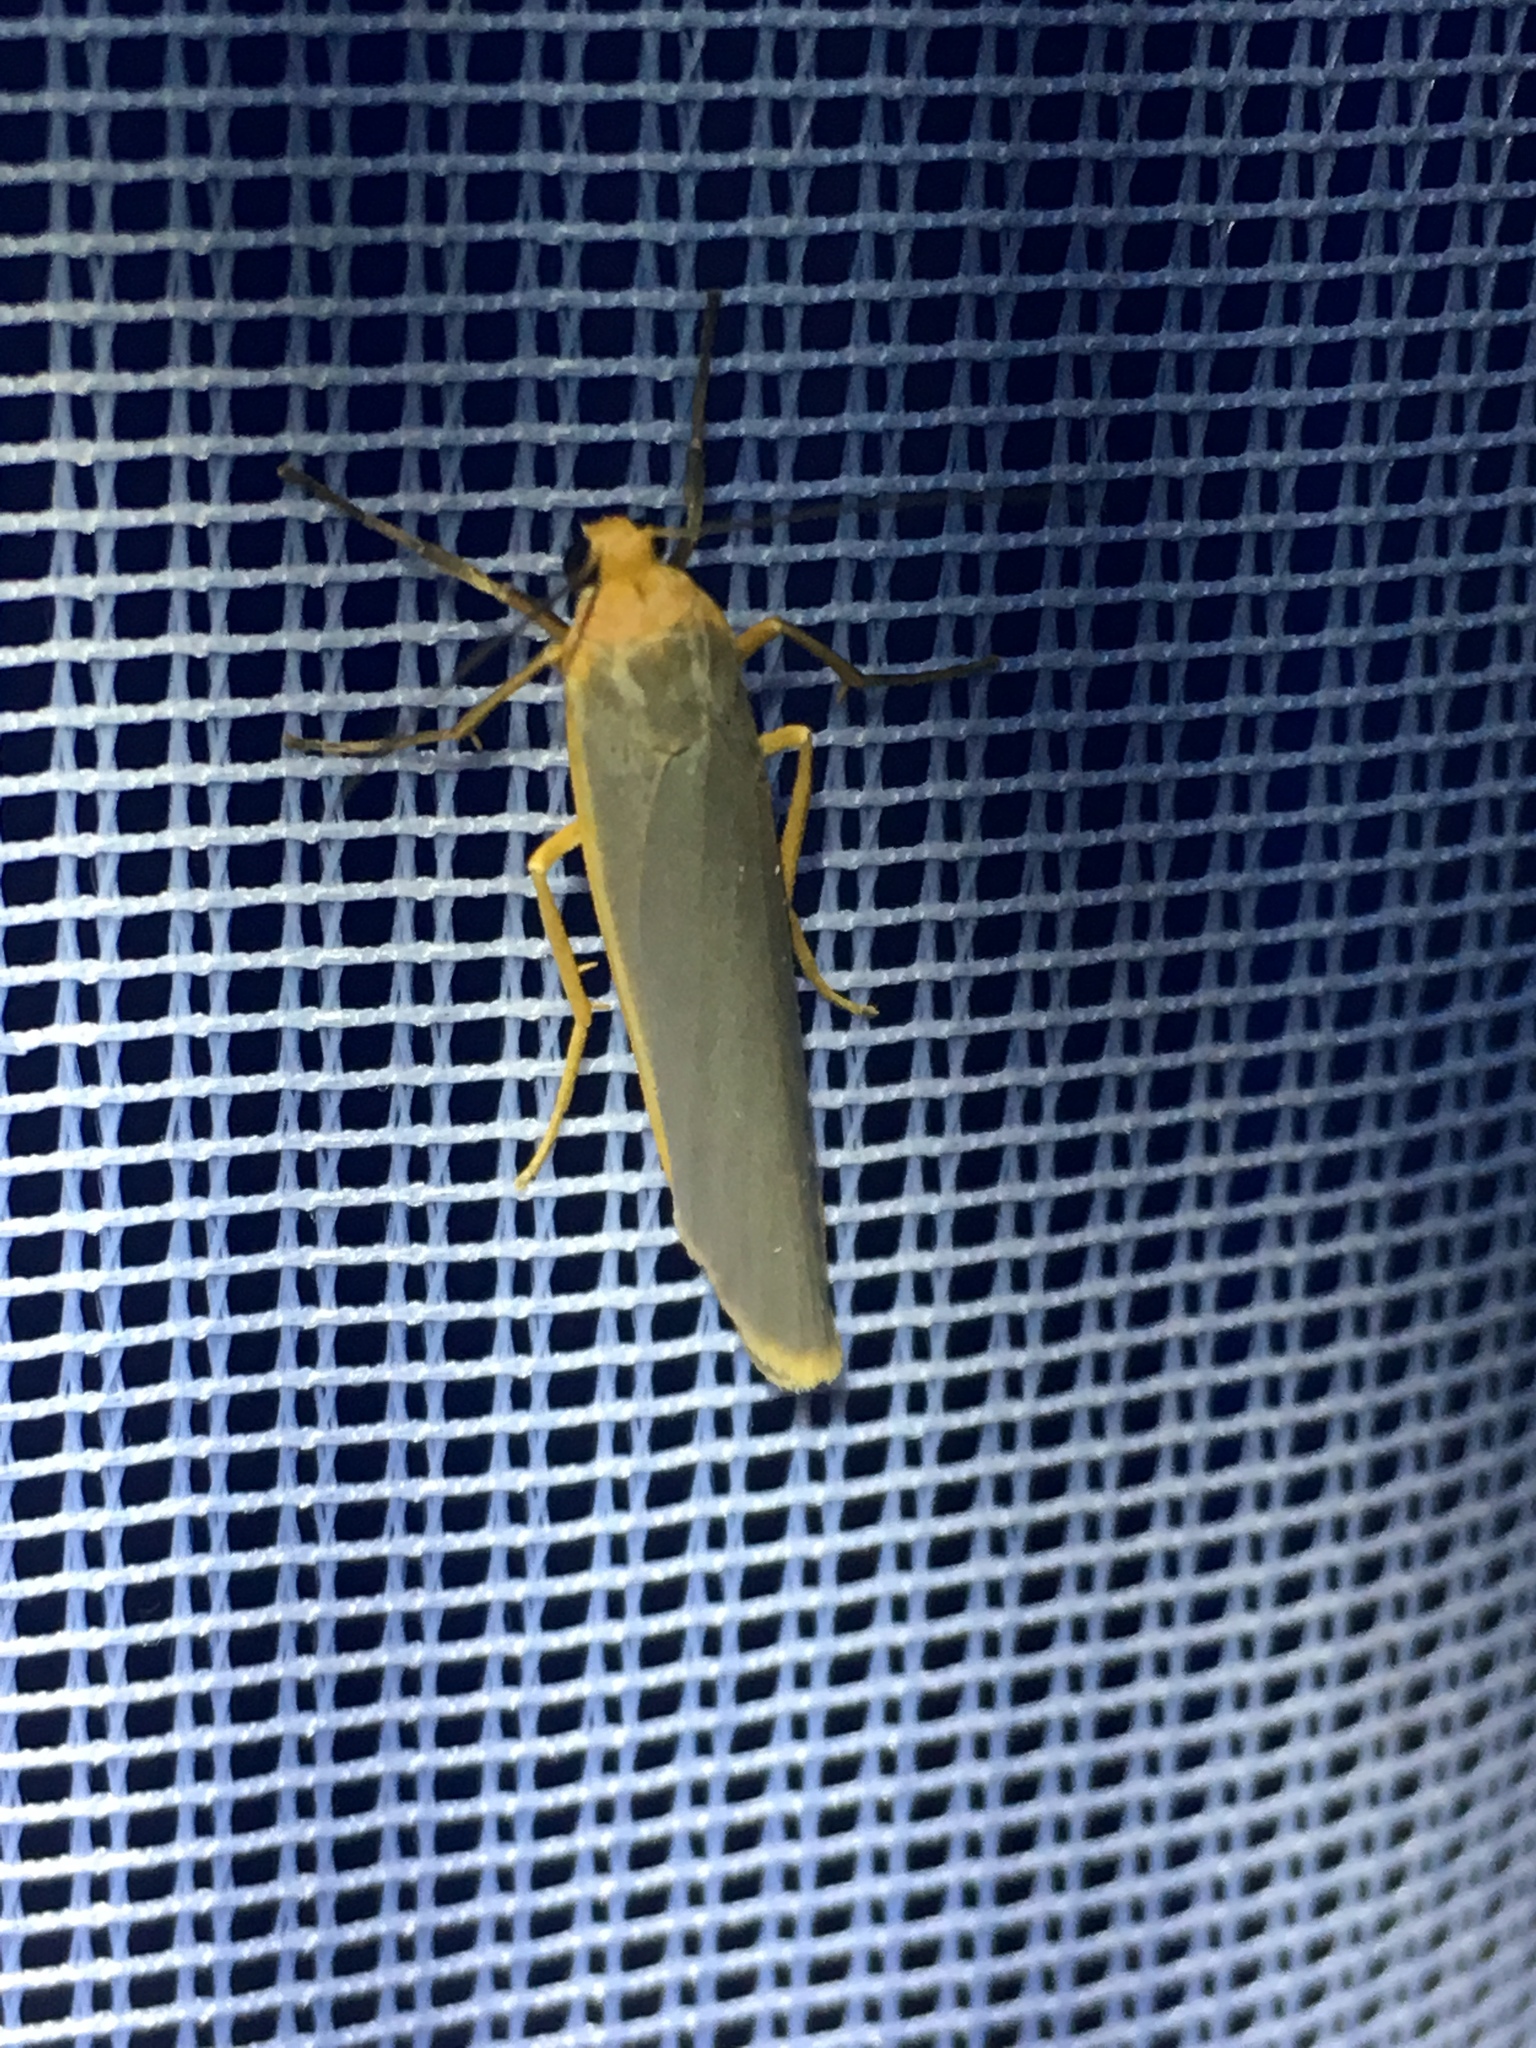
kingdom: Animalia
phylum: Arthropoda
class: Insecta
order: Lepidoptera
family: Erebidae
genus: Manulea
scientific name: Manulea complana
